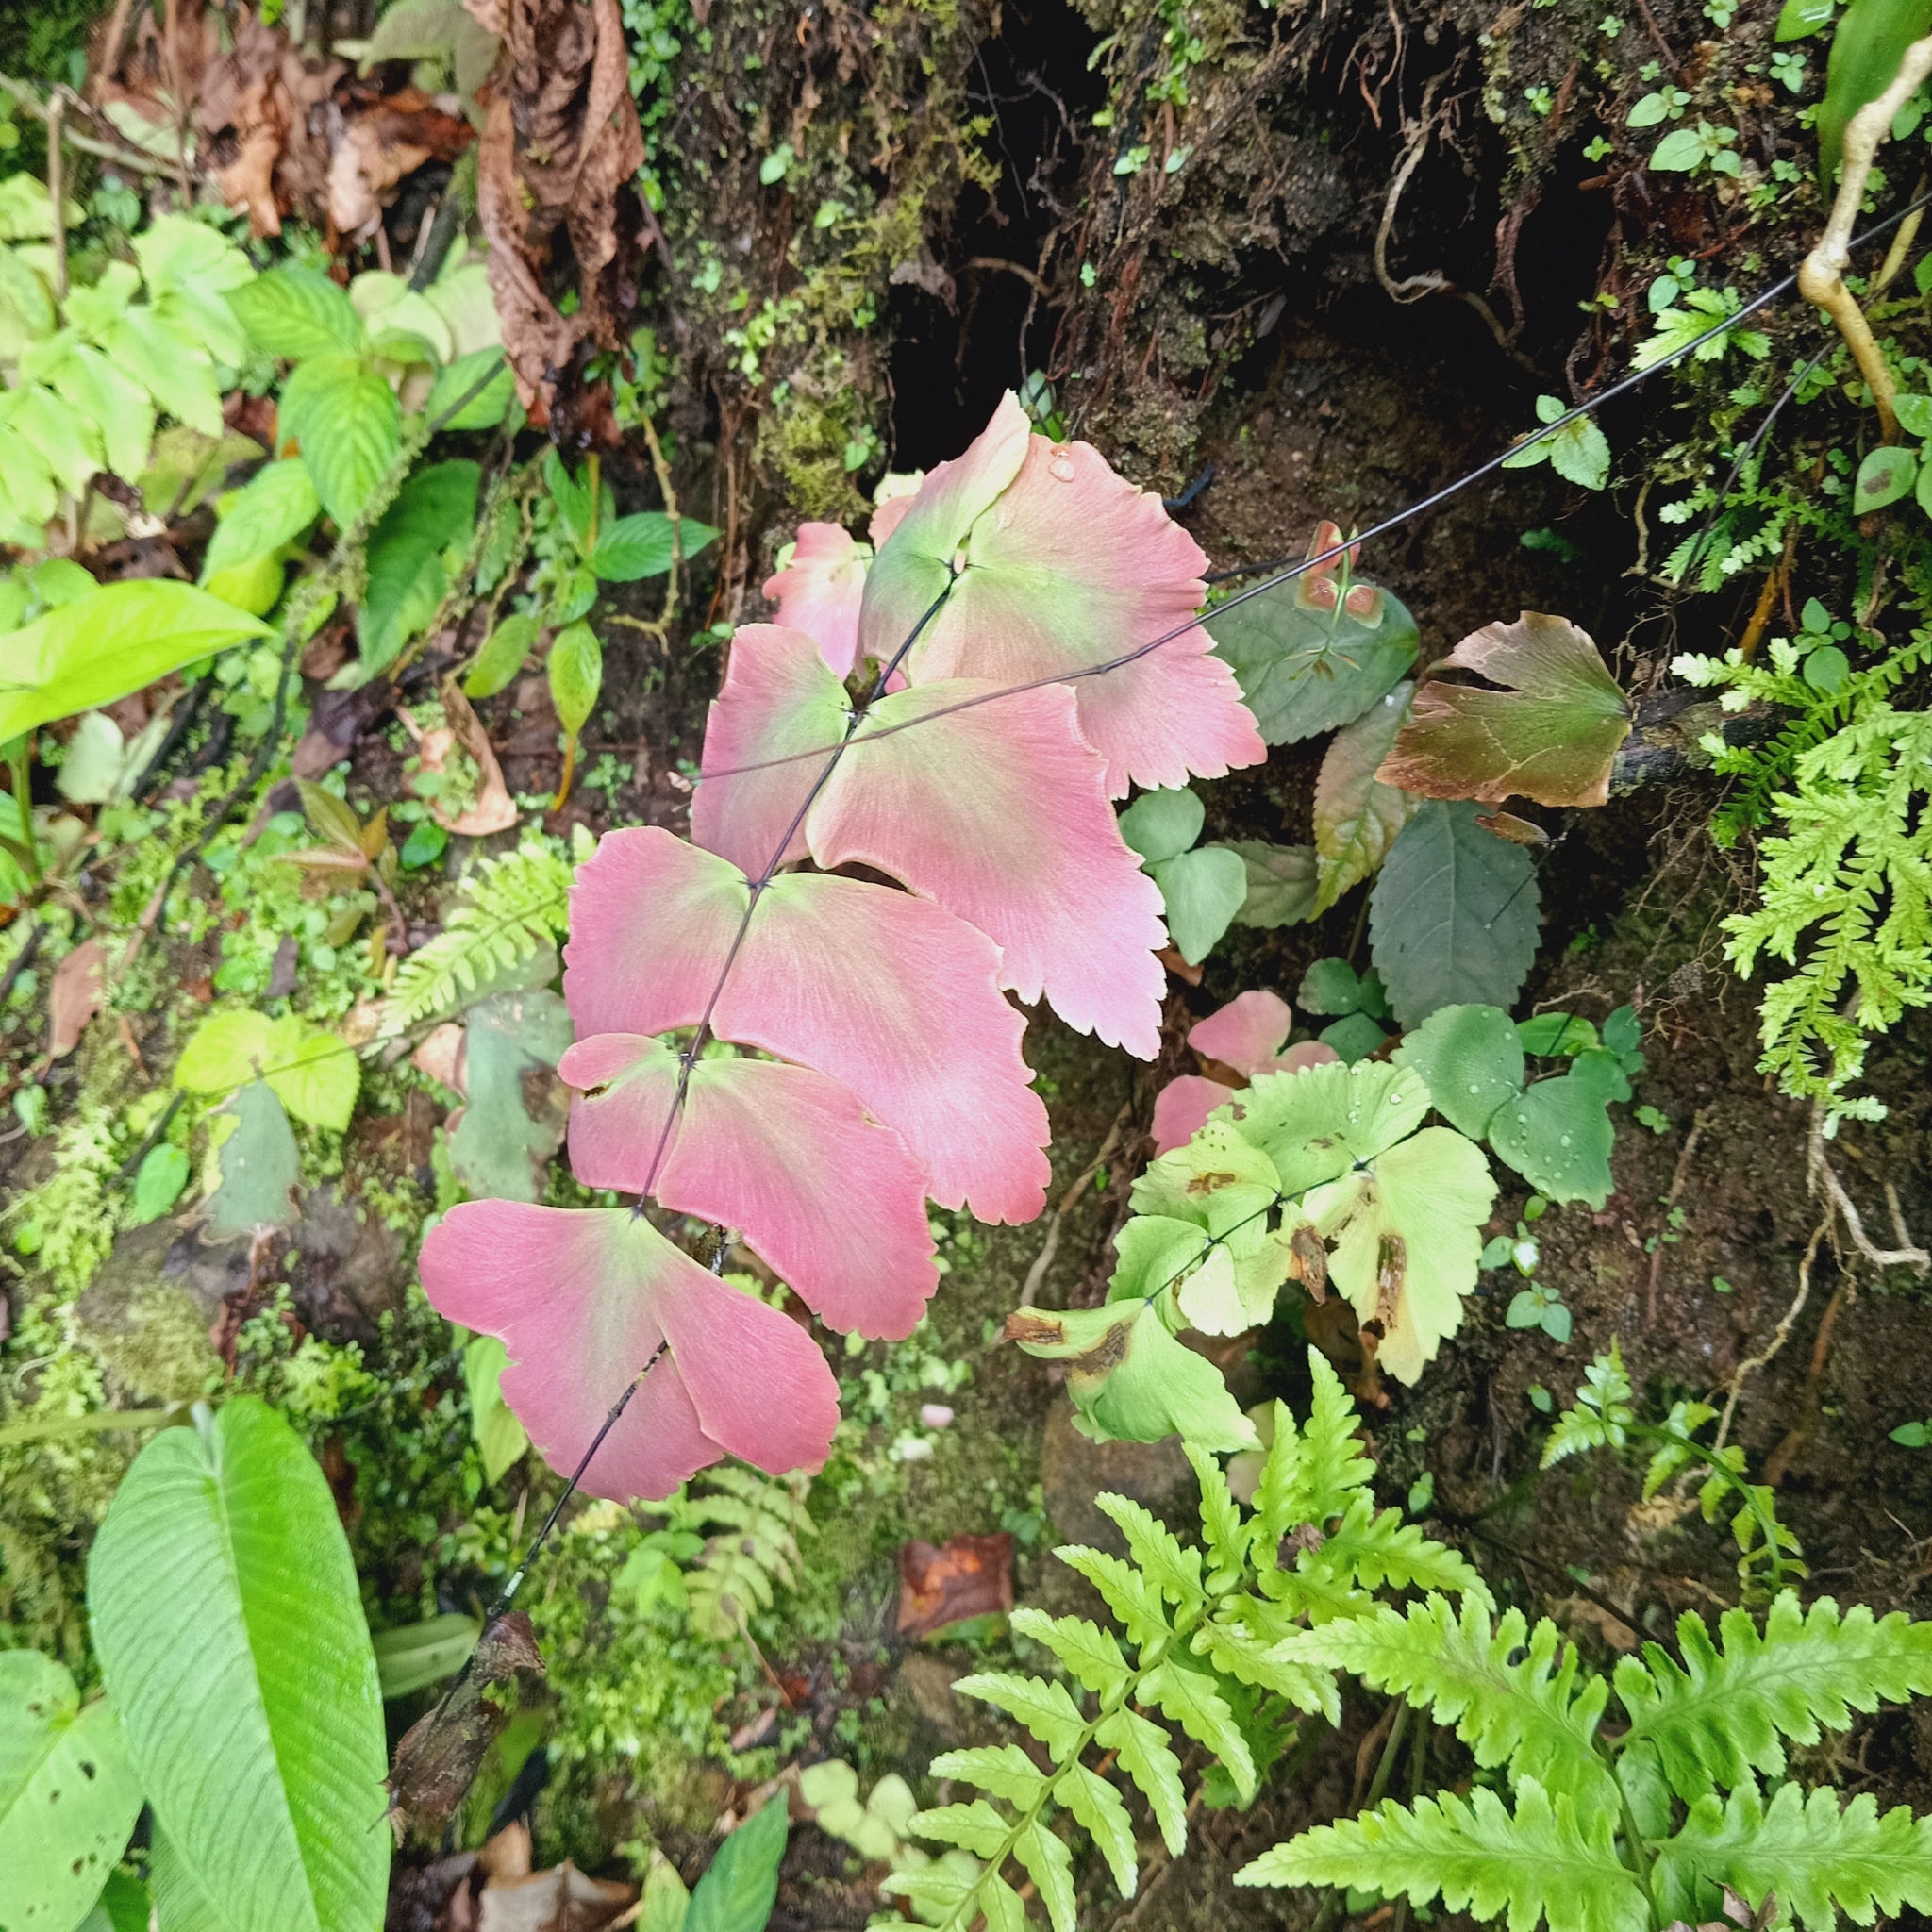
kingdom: Plantae
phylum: Tracheophyta
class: Polypodiopsida
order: Polypodiales
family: Pteridaceae
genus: Adiantum
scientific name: Adiantum macrophyllum
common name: Largeleaf maidenhair
